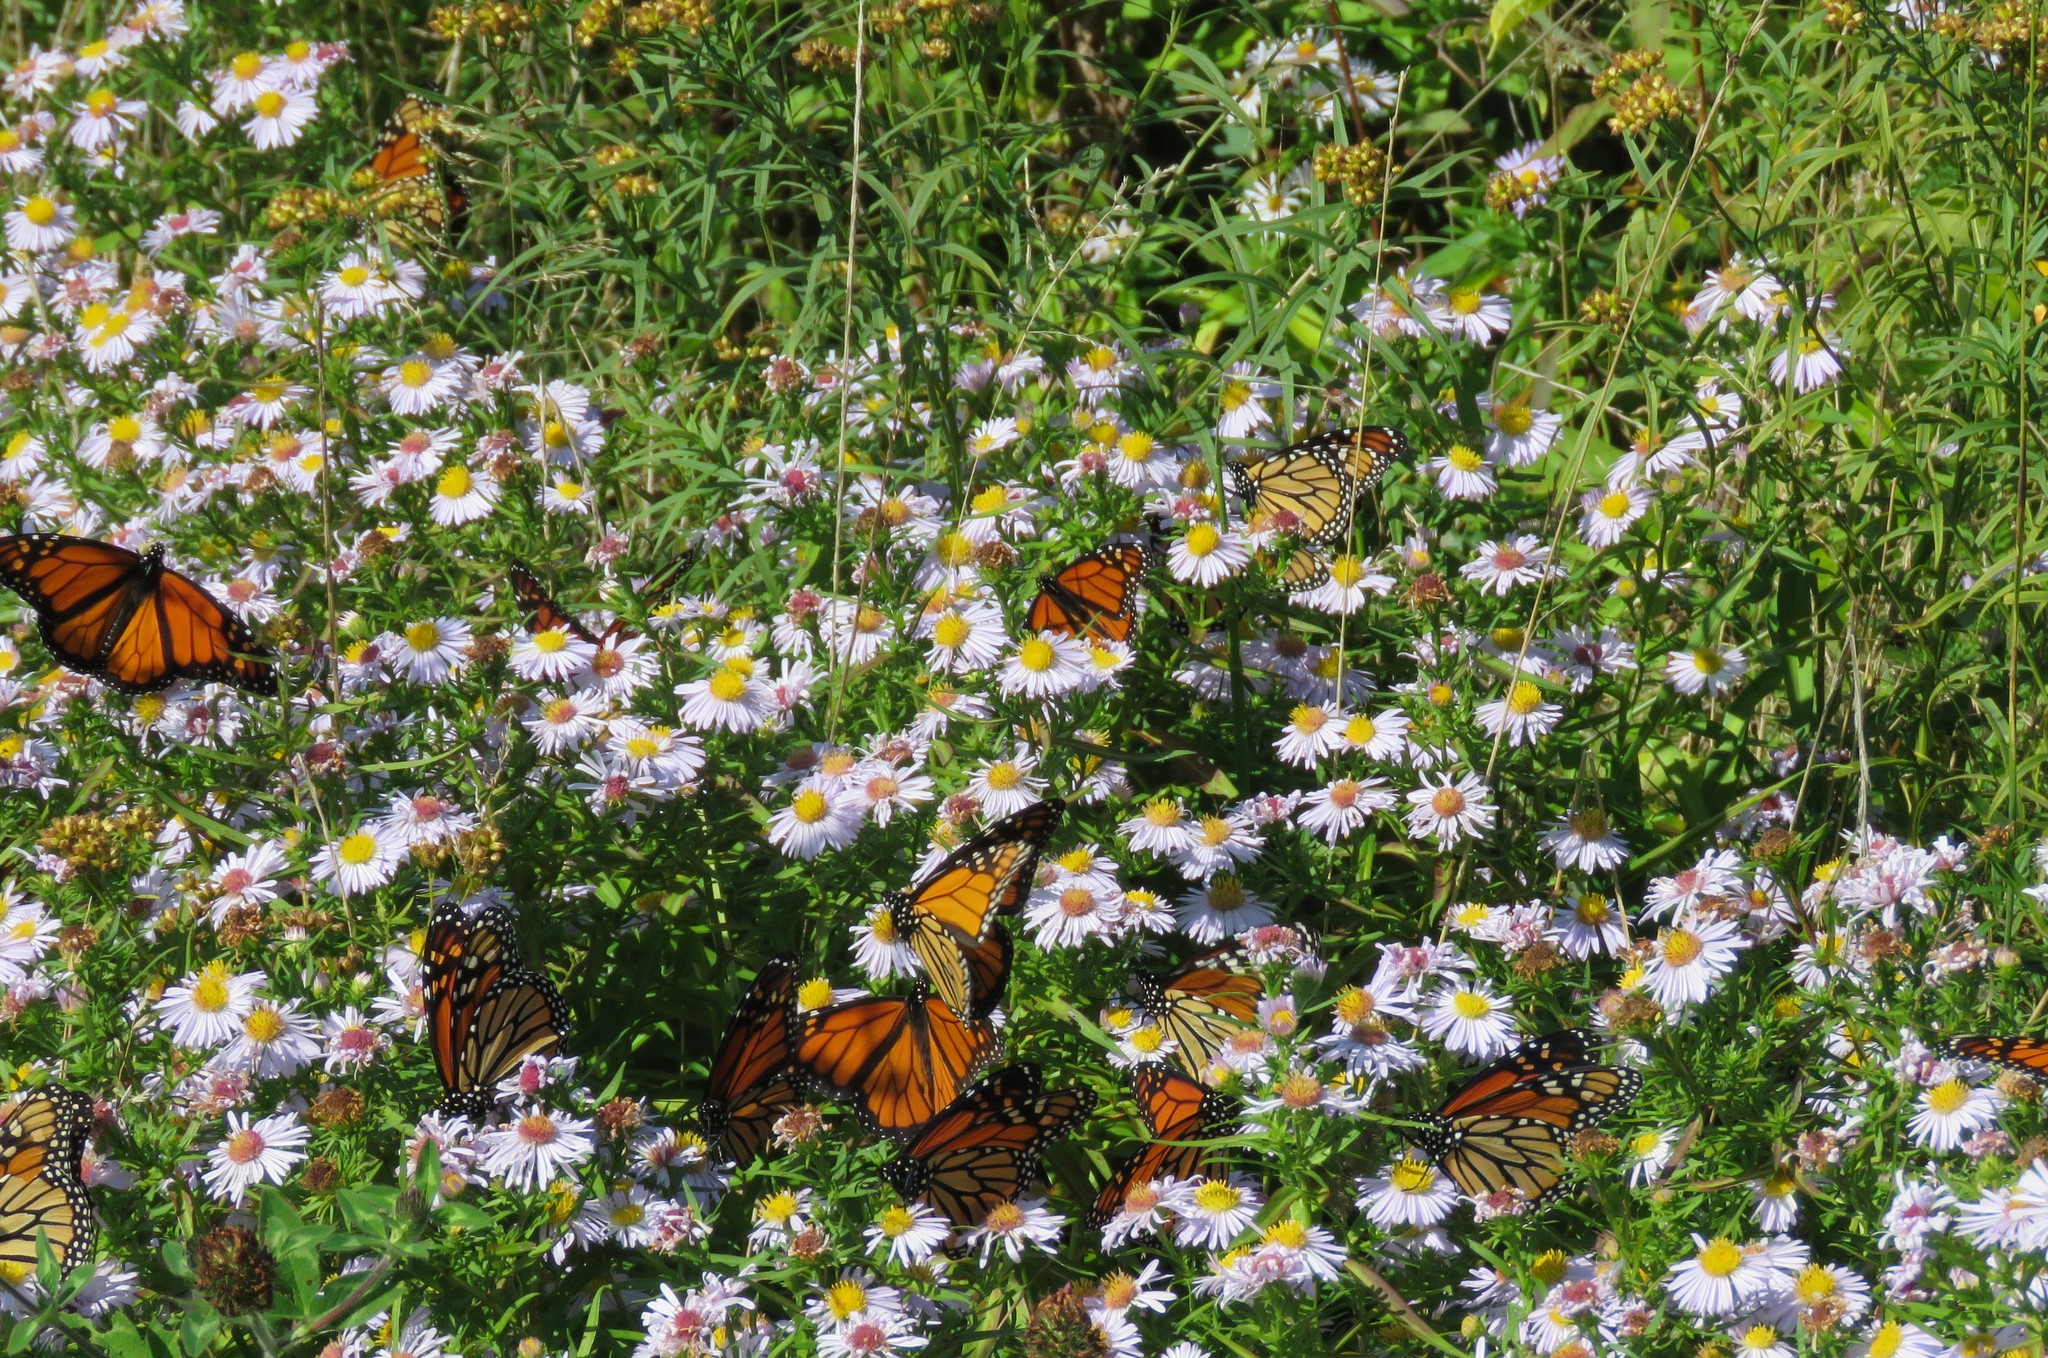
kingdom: Animalia
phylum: Arthropoda
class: Insecta
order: Lepidoptera
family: Nymphalidae
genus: Danaus
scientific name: Danaus plexippus
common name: Monarch
